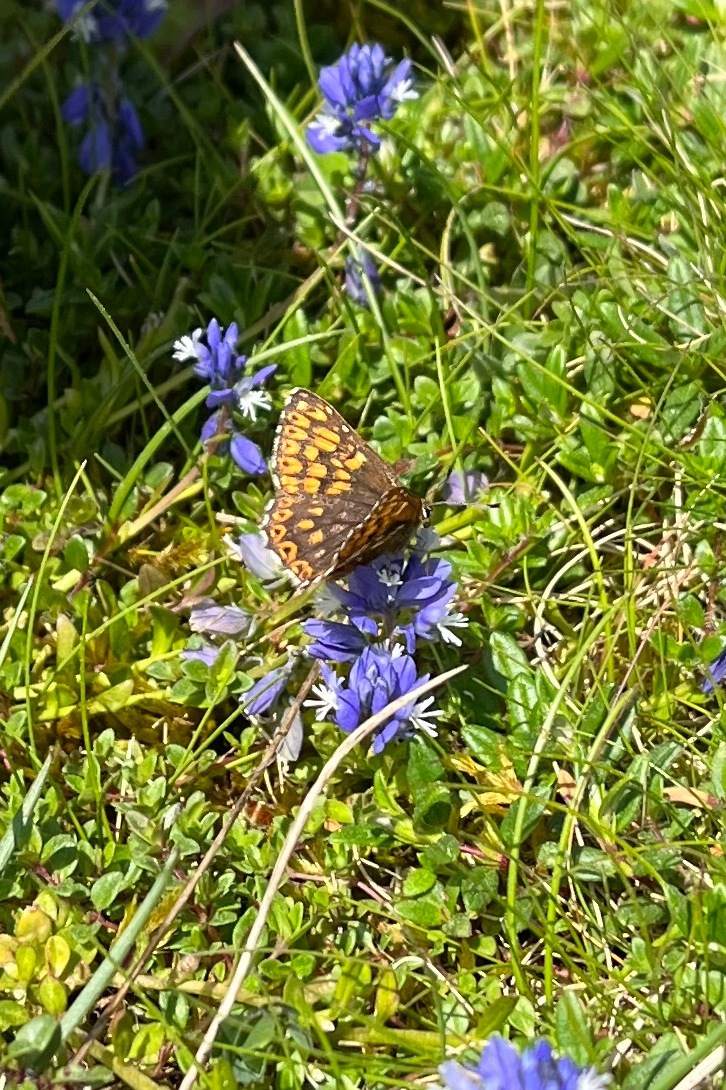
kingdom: Animalia
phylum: Arthropoda
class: Insecta
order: Lepidoptera
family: Riodinidae
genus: Hamearis
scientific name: Hamearis lucina
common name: Duke of burgundy fritillary
